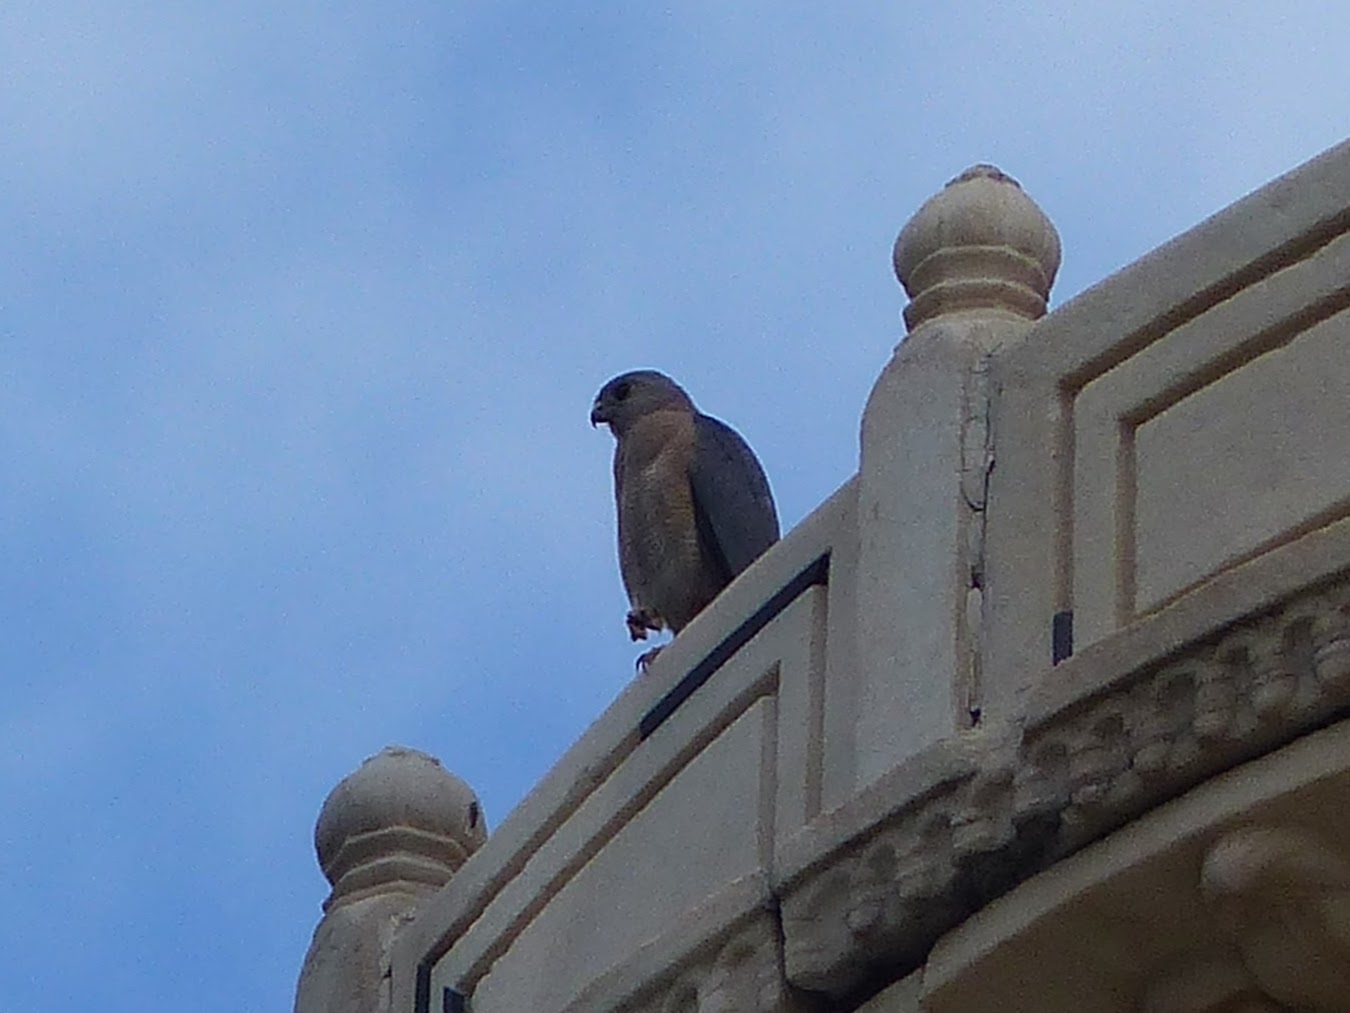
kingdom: Animalia
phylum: Chordata
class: Aves
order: Accipitriformes
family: Accipitridae
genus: Accipiter
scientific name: Accipiter badius
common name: Shikra
